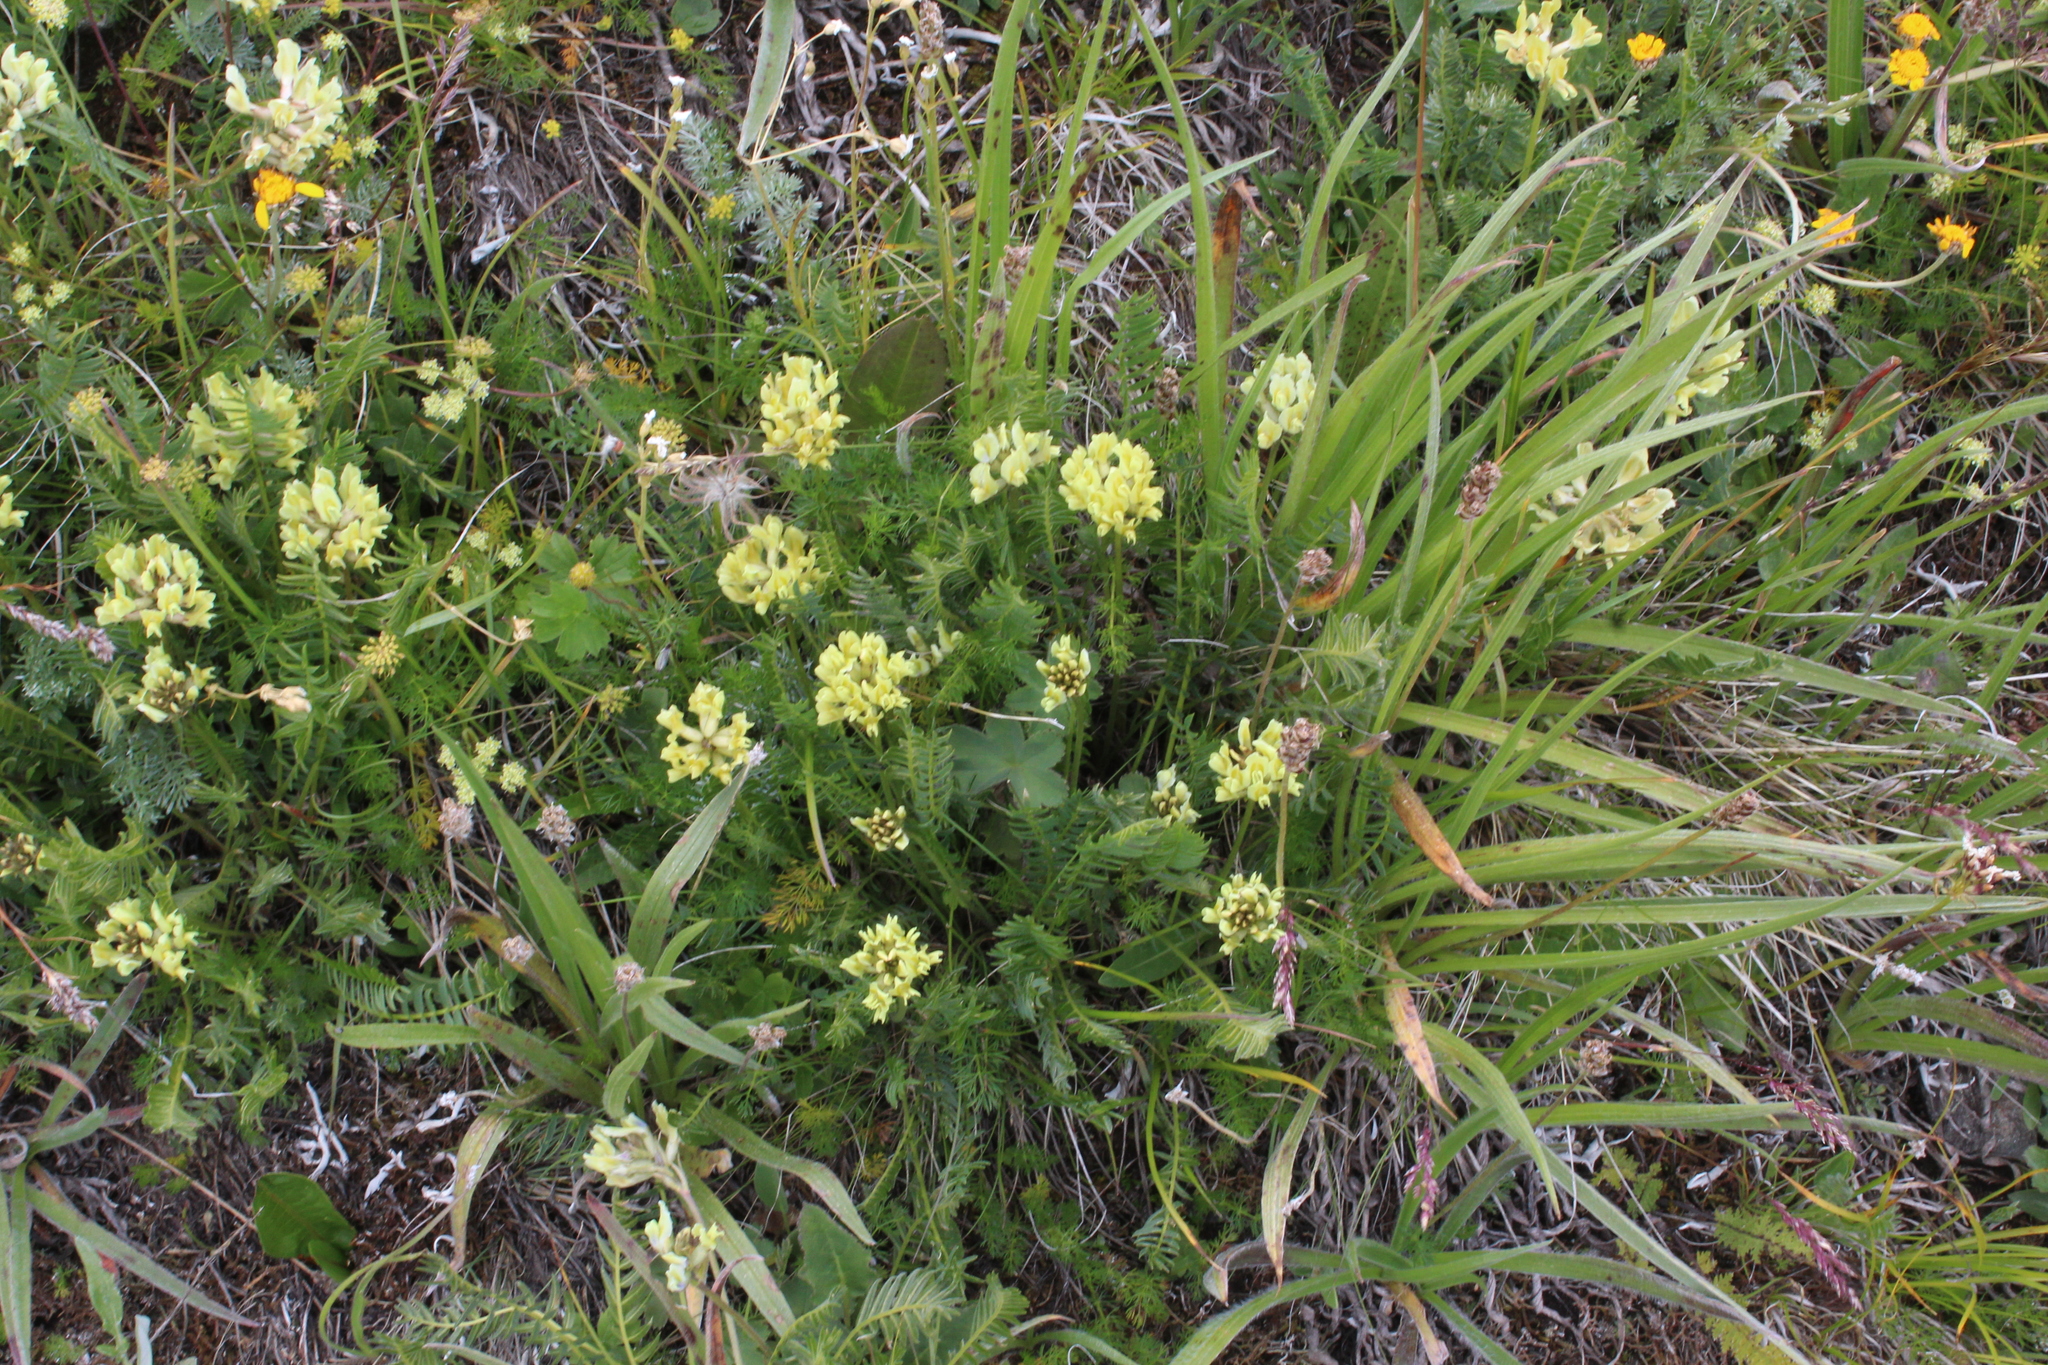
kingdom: Plantae
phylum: Tracheophyta
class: Magnoliopsida
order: Fabales
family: Fabaceae
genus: Oxytropis
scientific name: Oxytropis kubanensis
